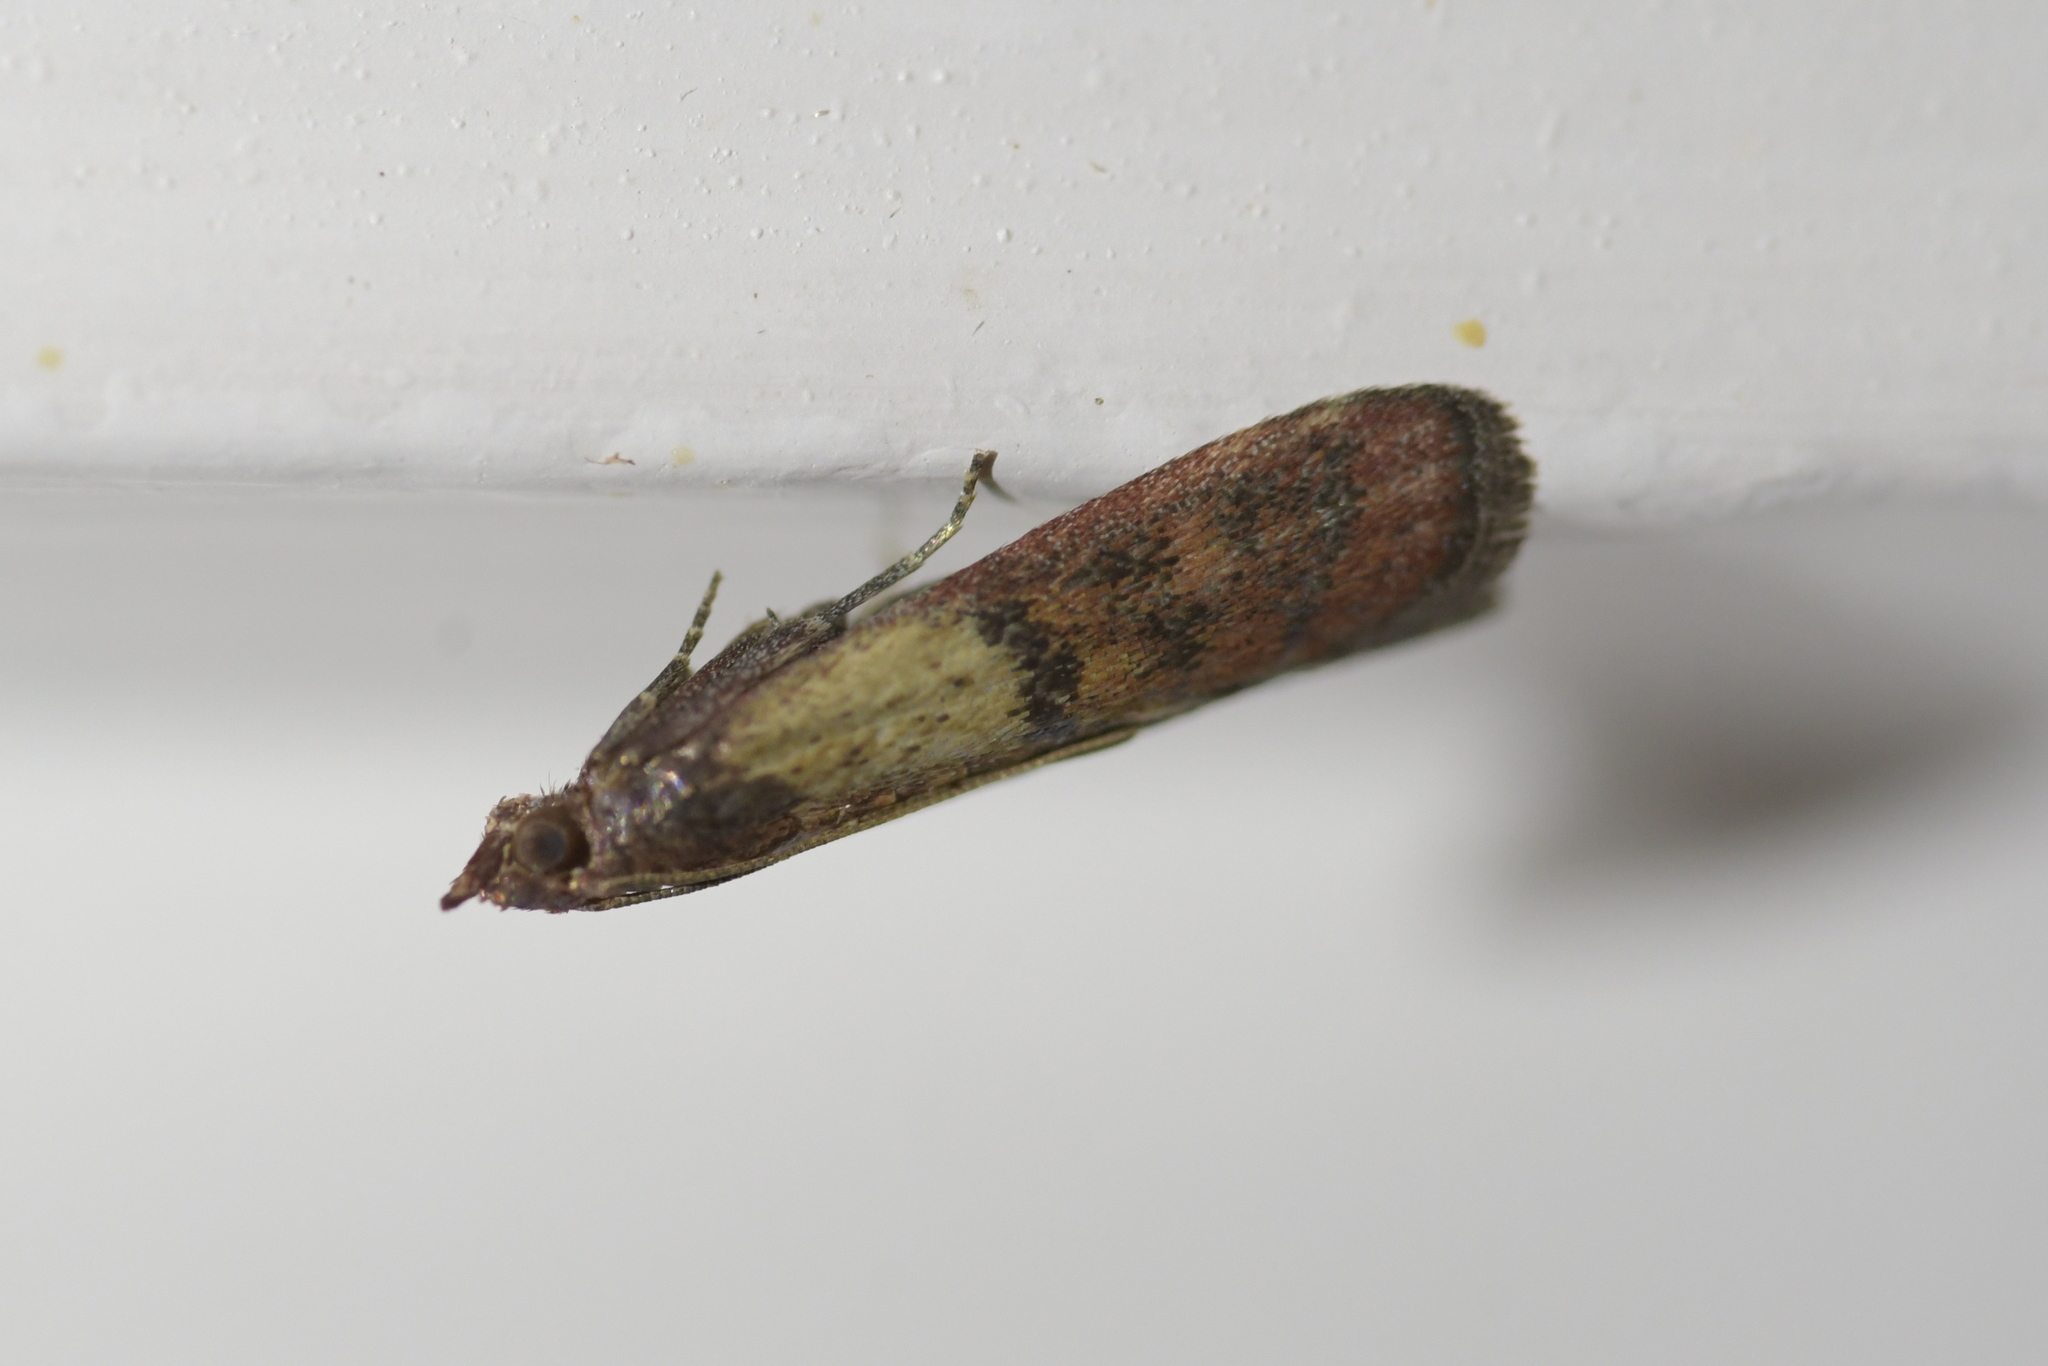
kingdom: Animalia
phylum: Arthropoda
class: Insecta
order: Lepidoptera
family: Pyralidae
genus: Plodia
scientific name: Plodia interpunctella
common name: Indian meal moth
